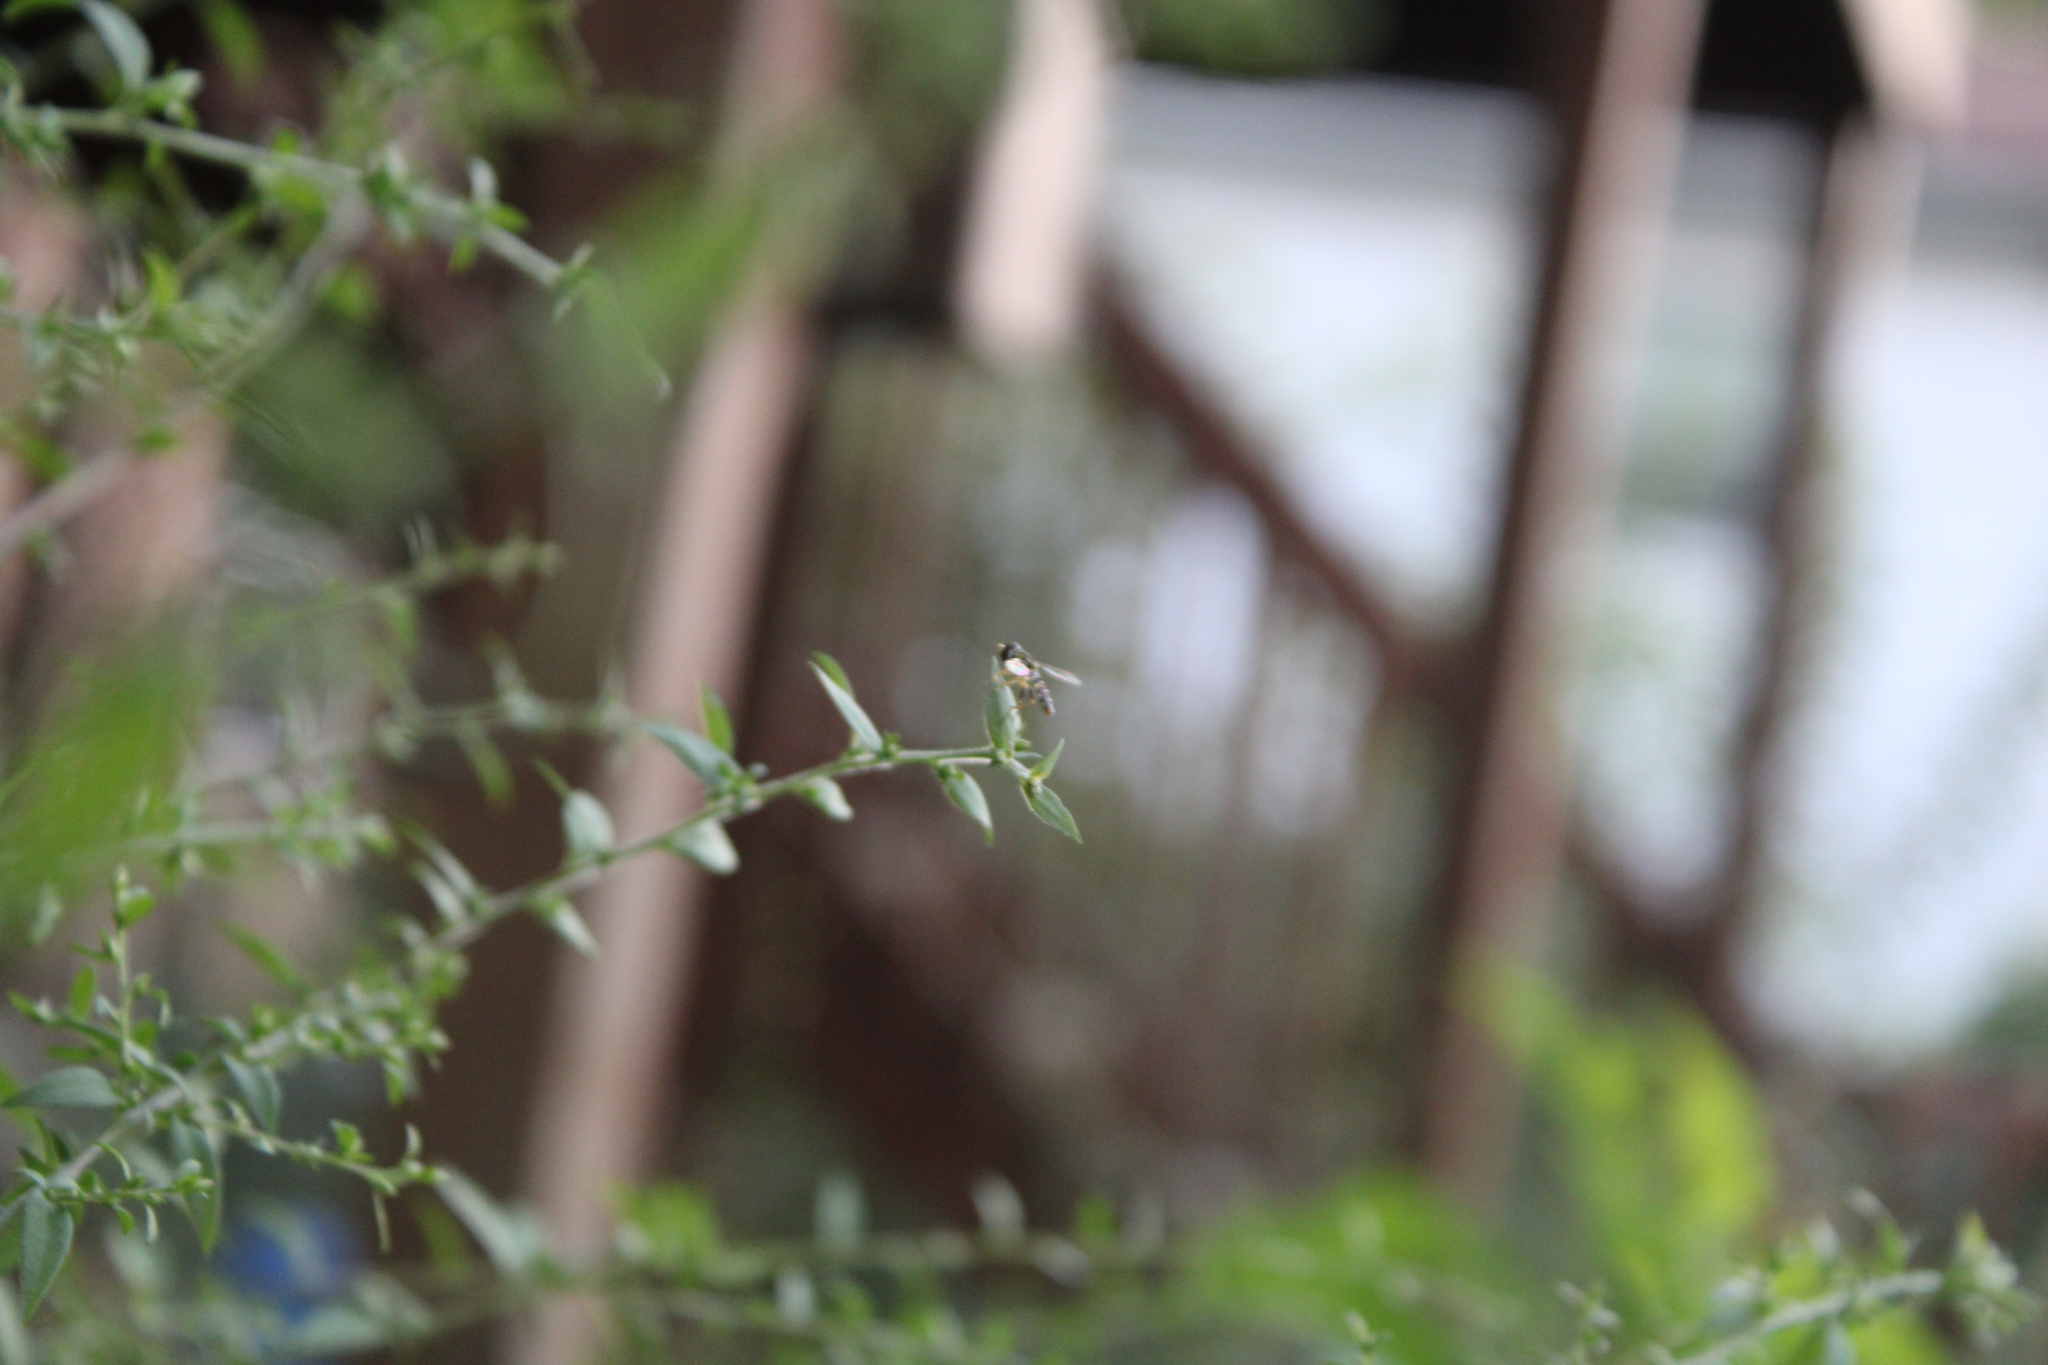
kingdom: Animalia
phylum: Arthropoda
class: Insecta
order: Diptera
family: Syrphidae
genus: Toxomerus
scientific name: Toxomerus geminatus
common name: Eastern calligrapher
